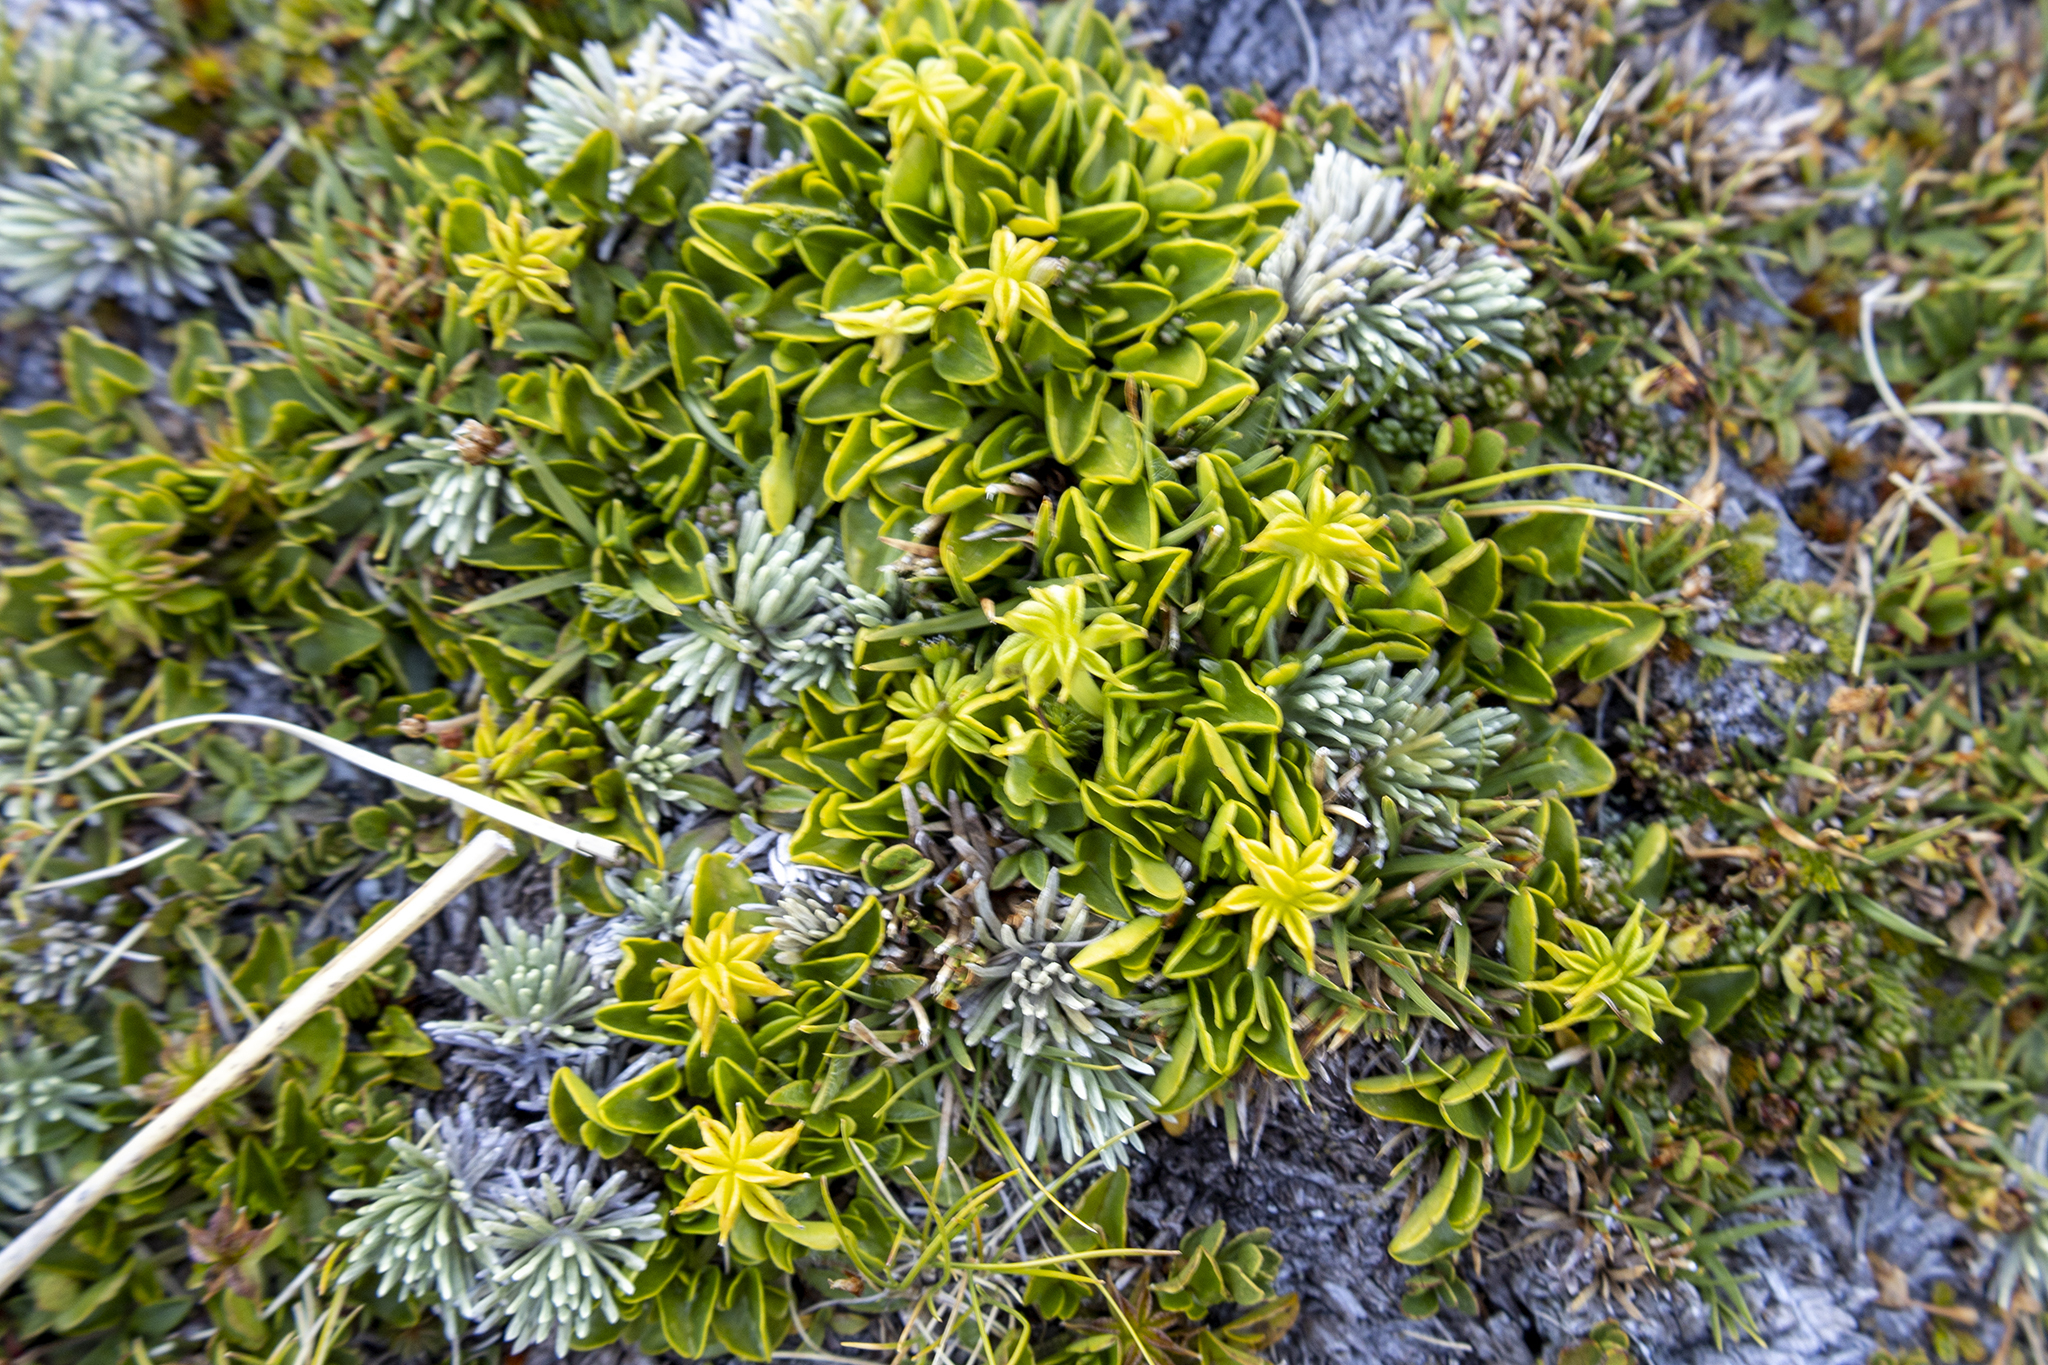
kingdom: Plantae
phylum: Tracheophyta
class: Magnoliopsida
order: Ranunculales
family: Ranunculaceae
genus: Caltha
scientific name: Caltha obtusa
